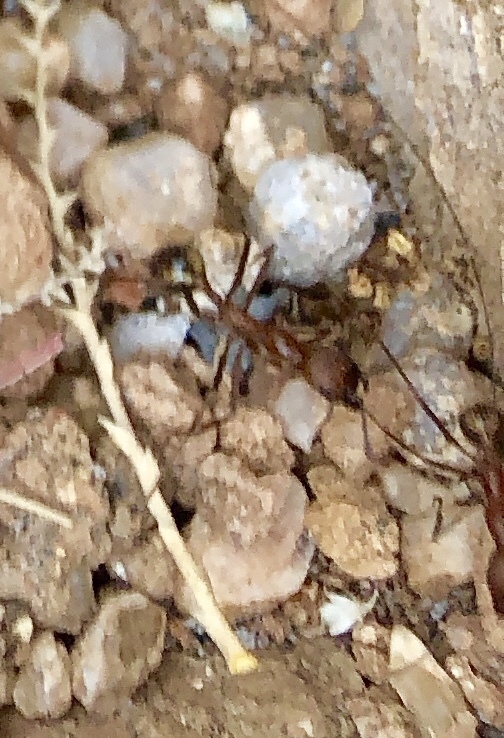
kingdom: Animalia
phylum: Arthropoda
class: Insecta
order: Hymenoptera
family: Formicidae
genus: Novomessor
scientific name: Novomessor albisetosa
